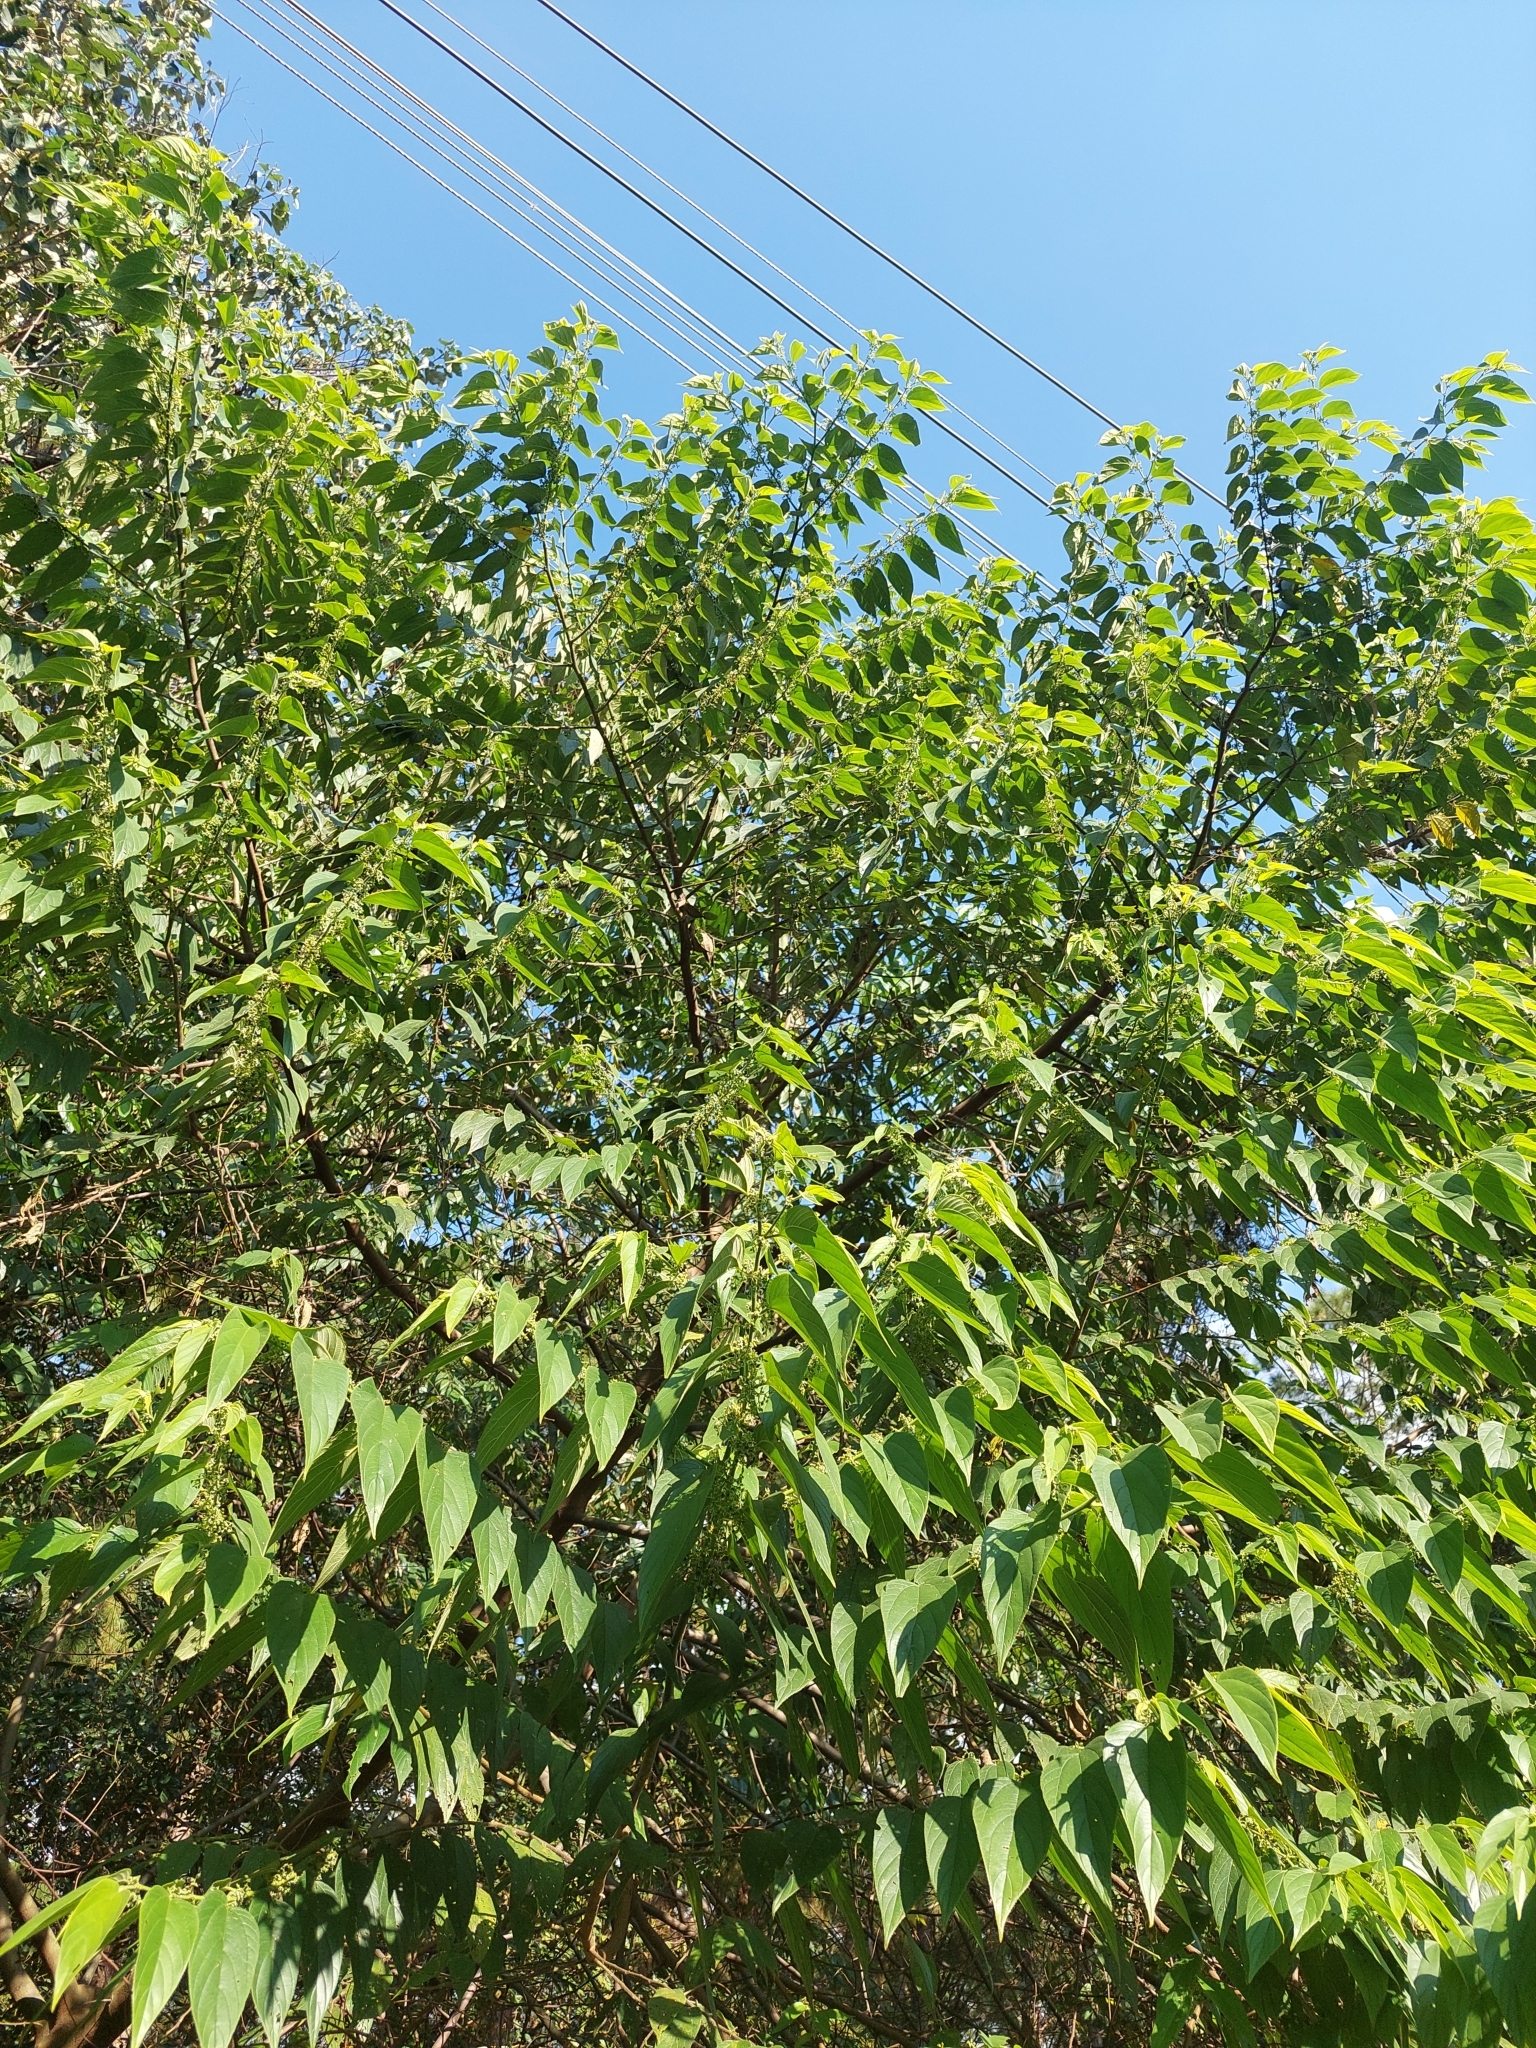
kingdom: Plantae
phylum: Tracheophyta
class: Magnoliopsida
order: Rosales
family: Cannabaceae
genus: Trema
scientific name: Trema micranthum
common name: Jamaican nettletree
